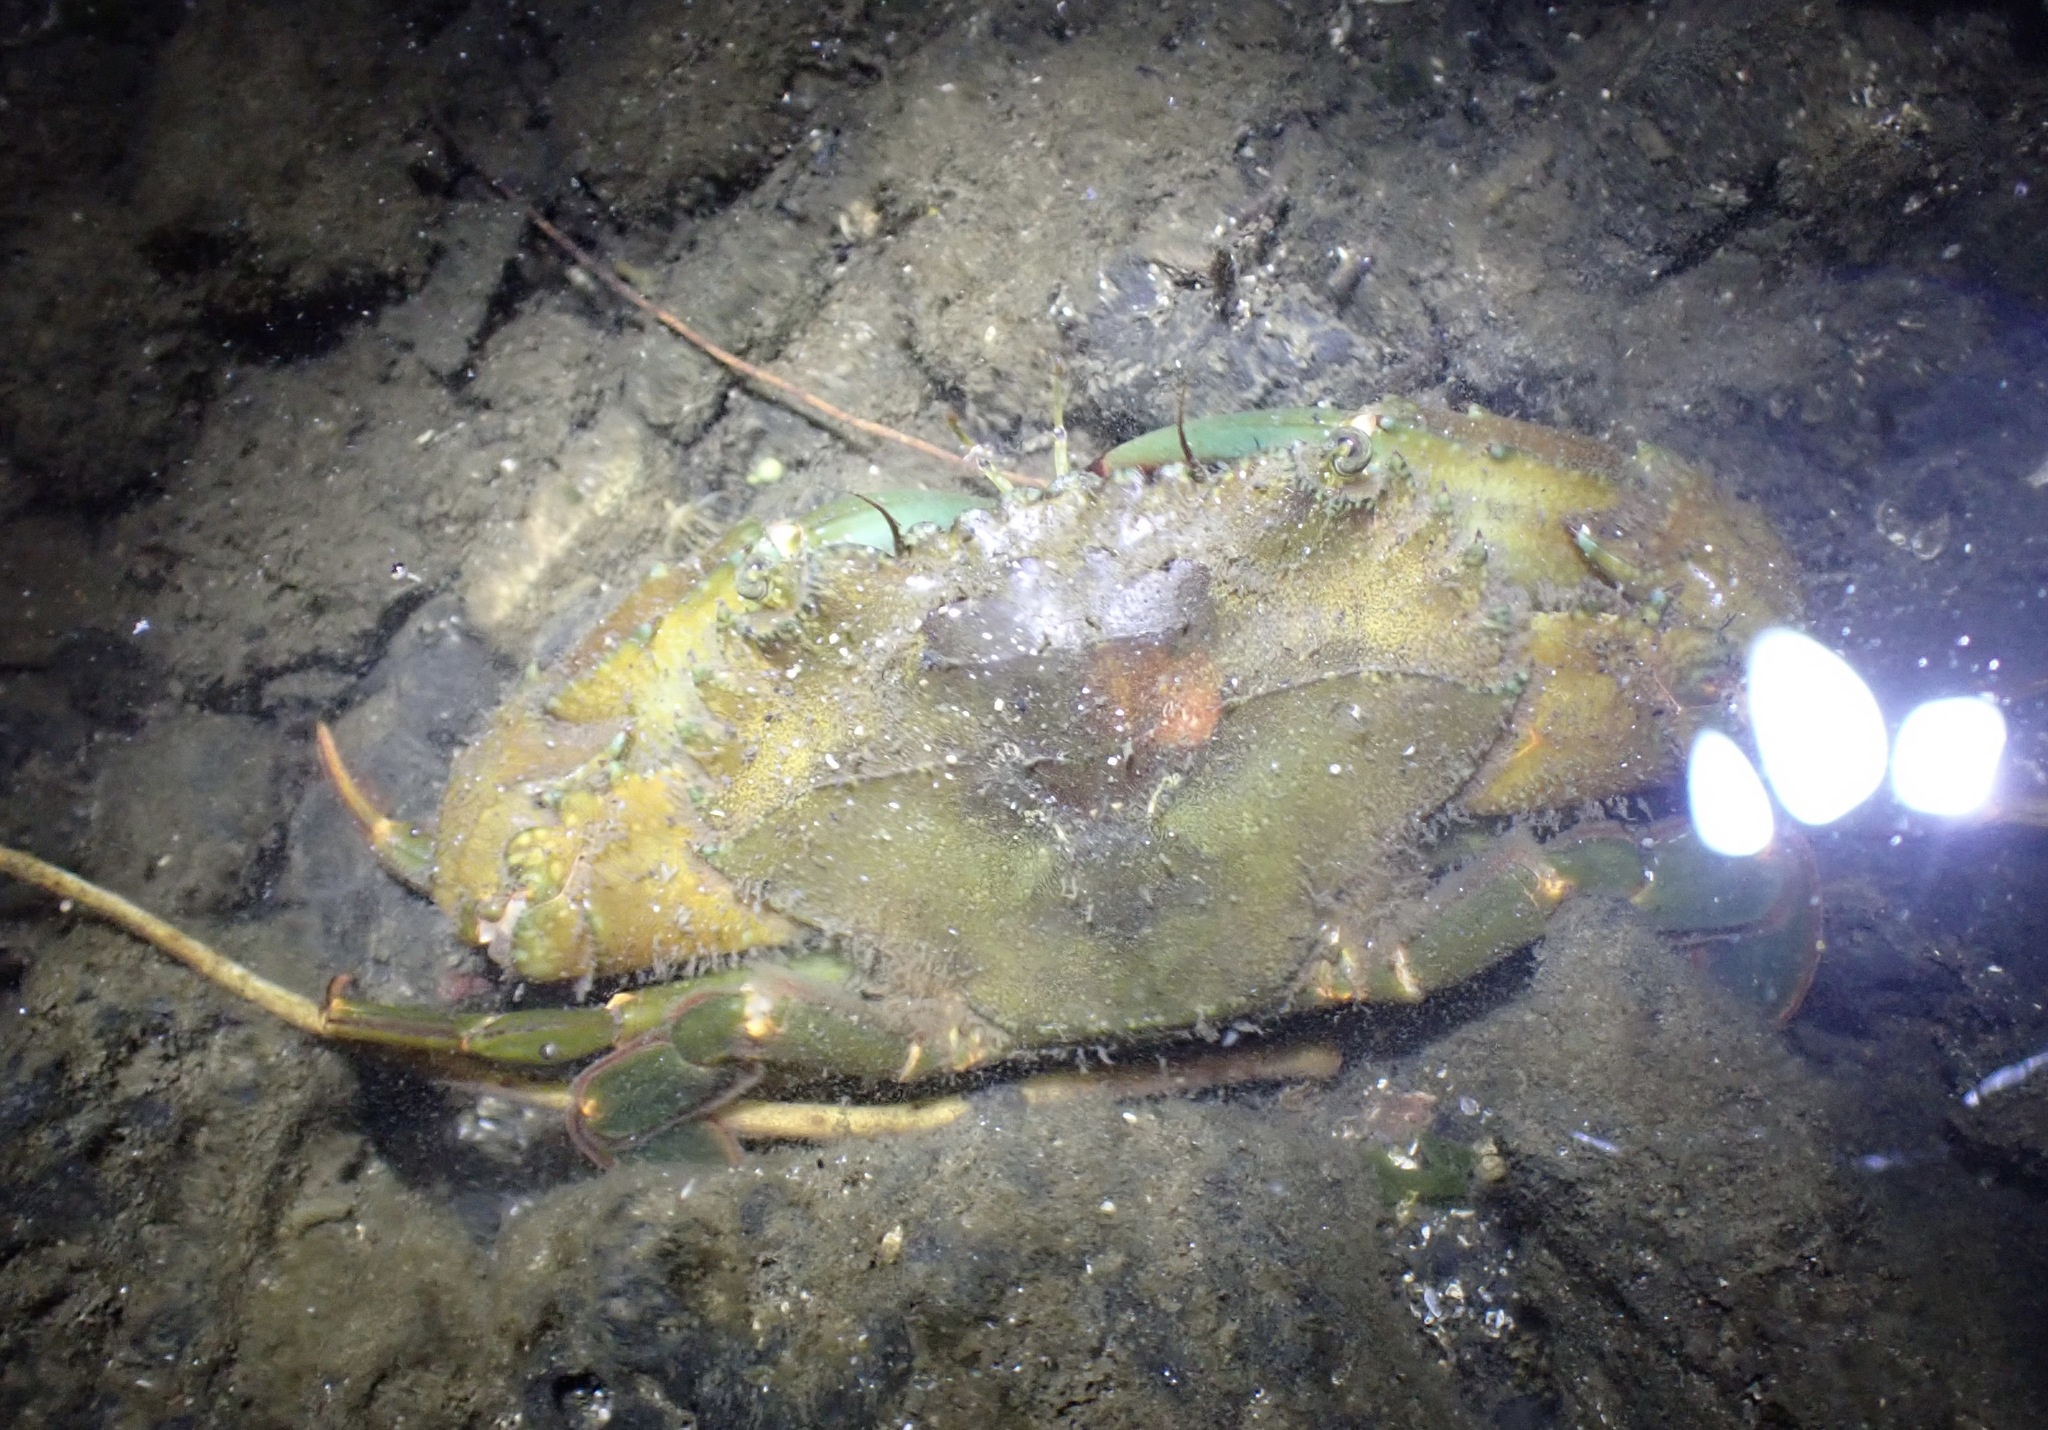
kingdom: Animalia
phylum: Arthropoda
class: Malacostraca
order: Decapoda
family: Portunidae
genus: Thalamita
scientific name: Thalamita crenata
